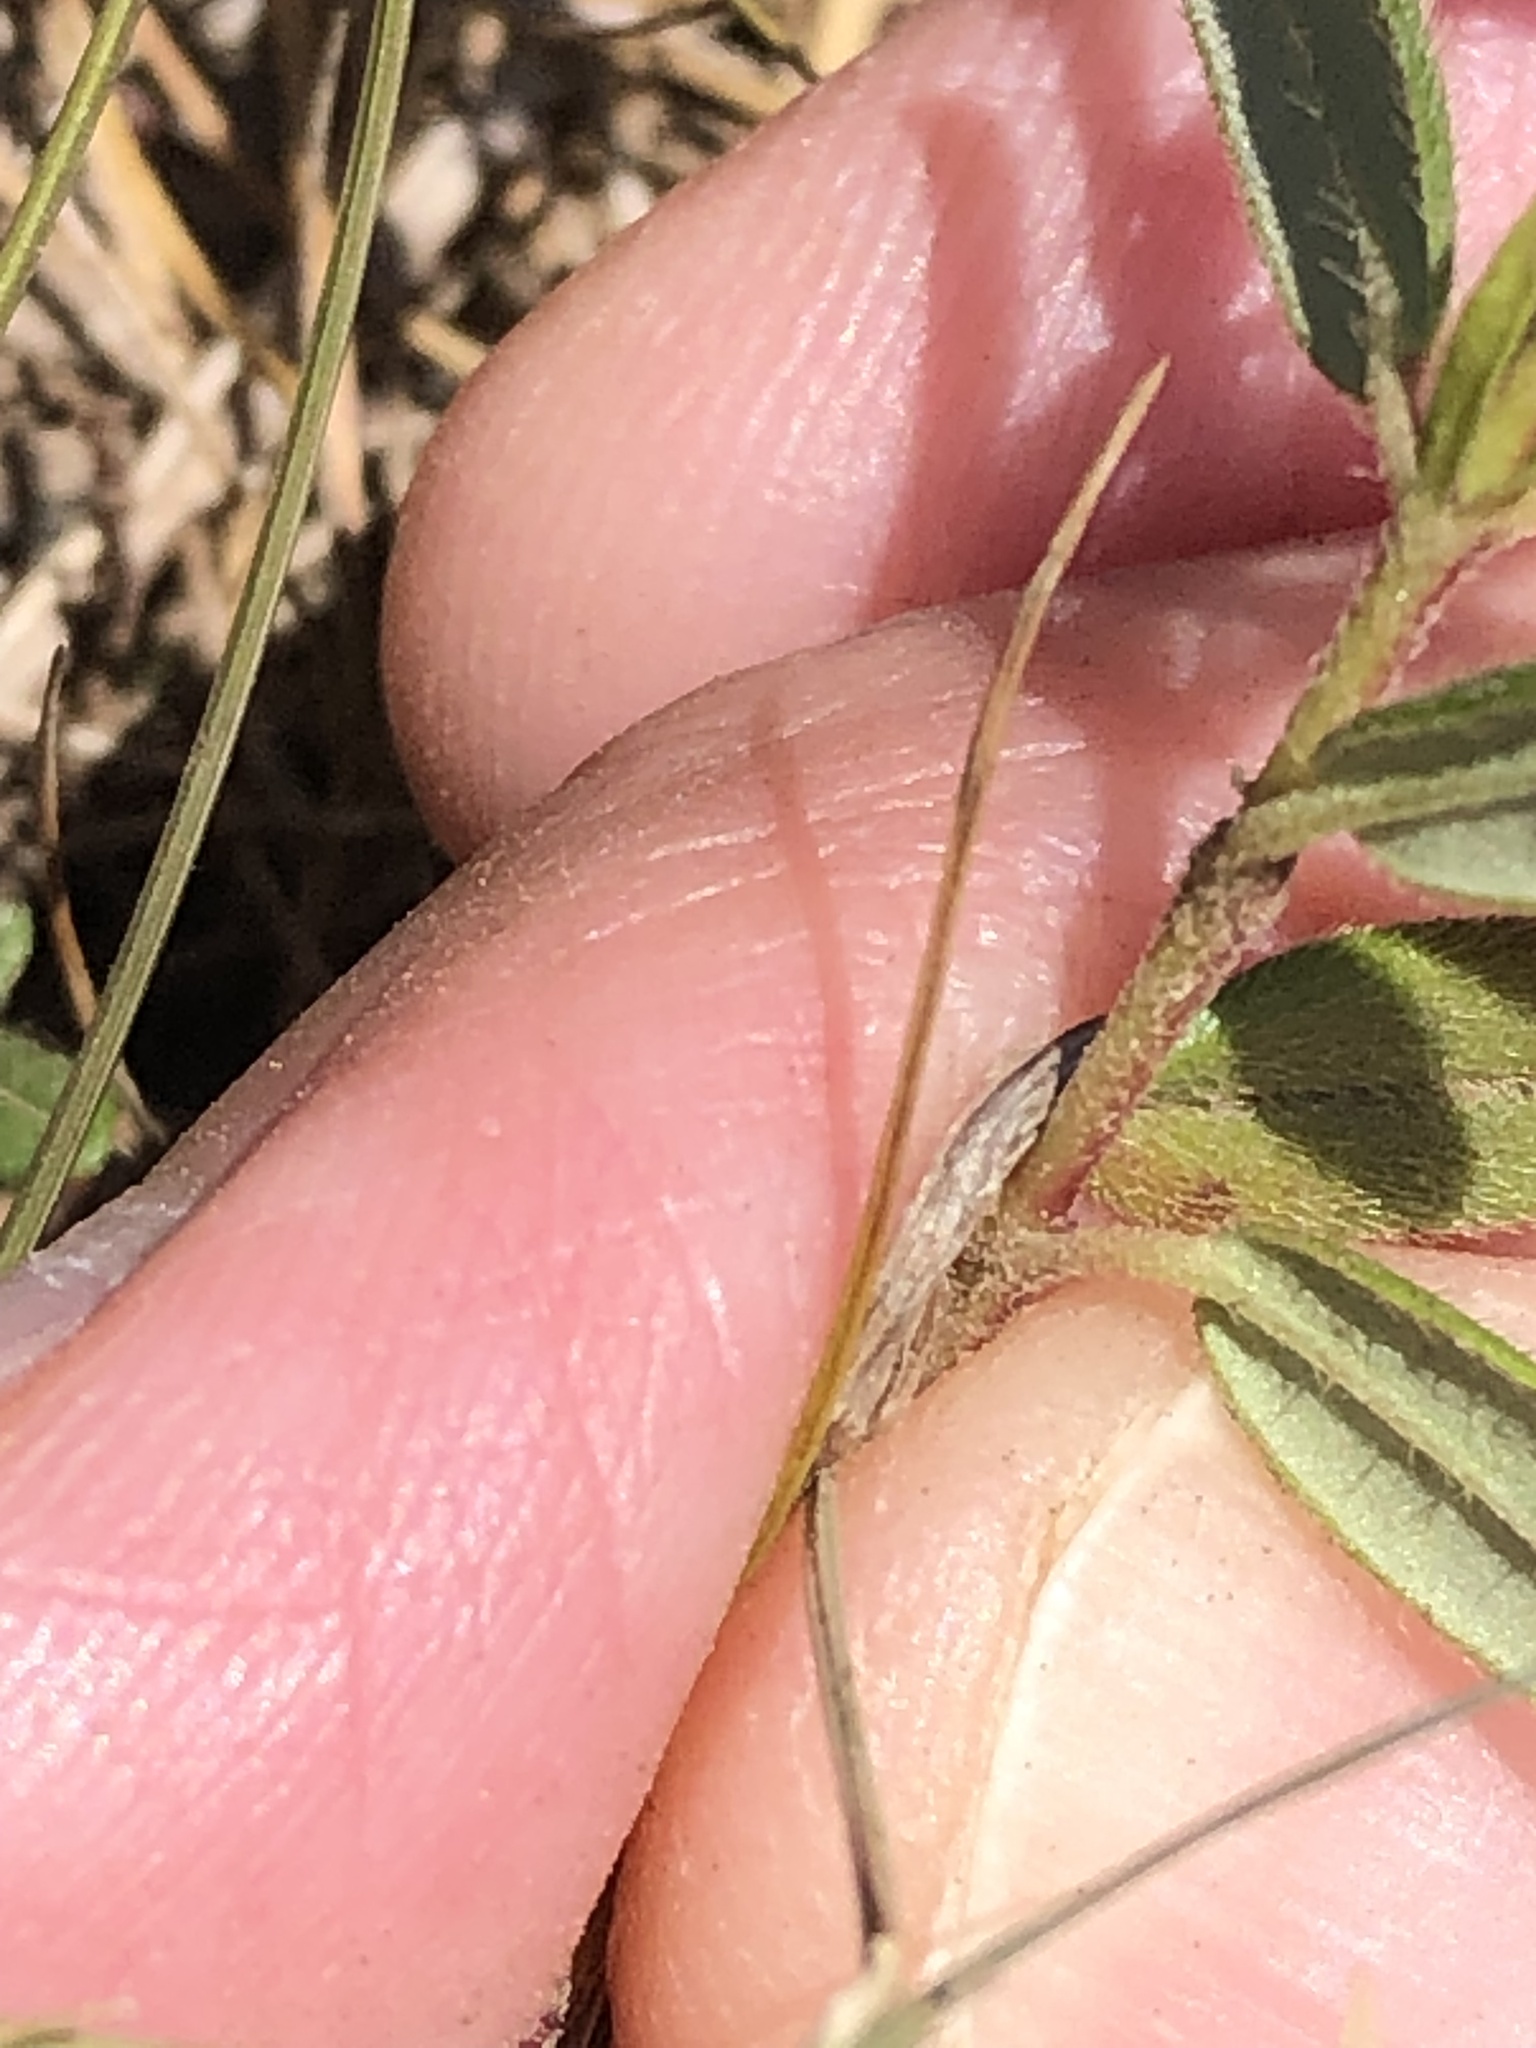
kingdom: Plantae
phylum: Tracheophyta
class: Magnoliopsida
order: Malvales
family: Cistaceae
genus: Helianthemum
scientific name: Helianthemum nummularium
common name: Common rock-rose
